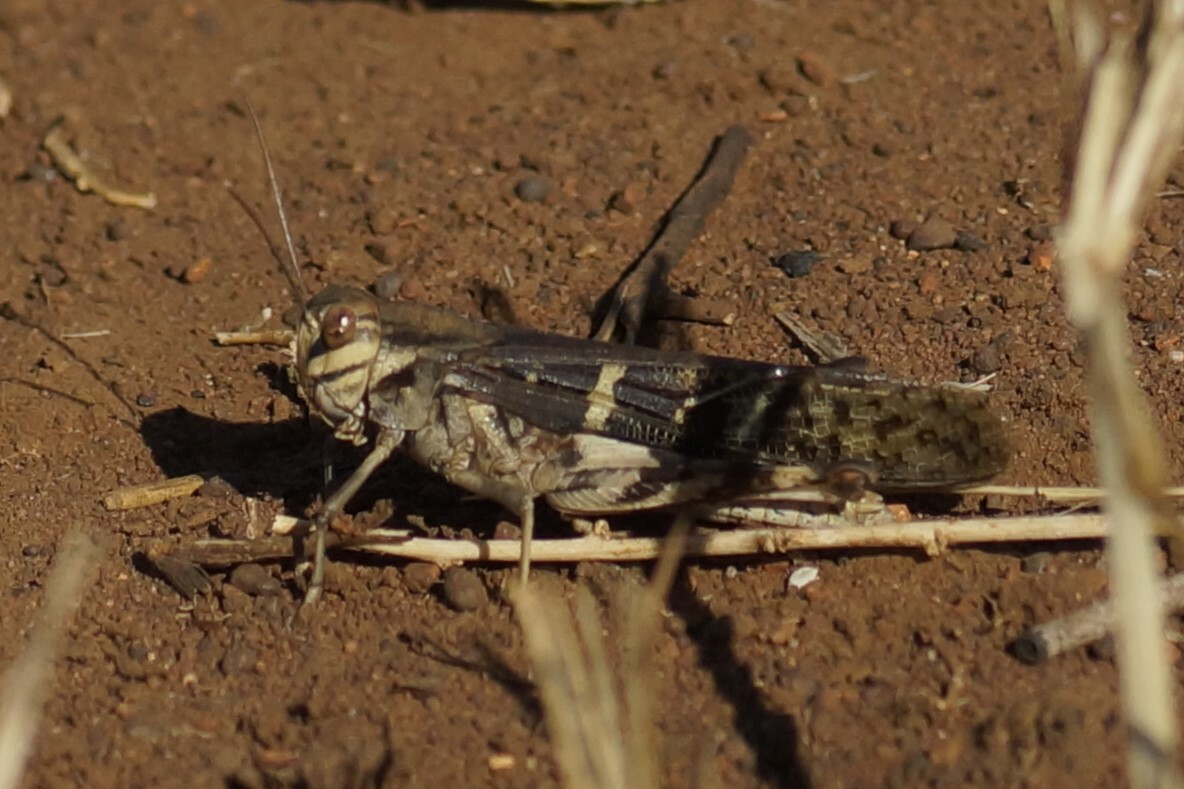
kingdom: Animalia
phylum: Arthropoda
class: Insecta
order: Orthoptera
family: Acrididae
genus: Gastrimargus
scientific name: Gastrimargus musicus
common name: Yellow-winged locust
